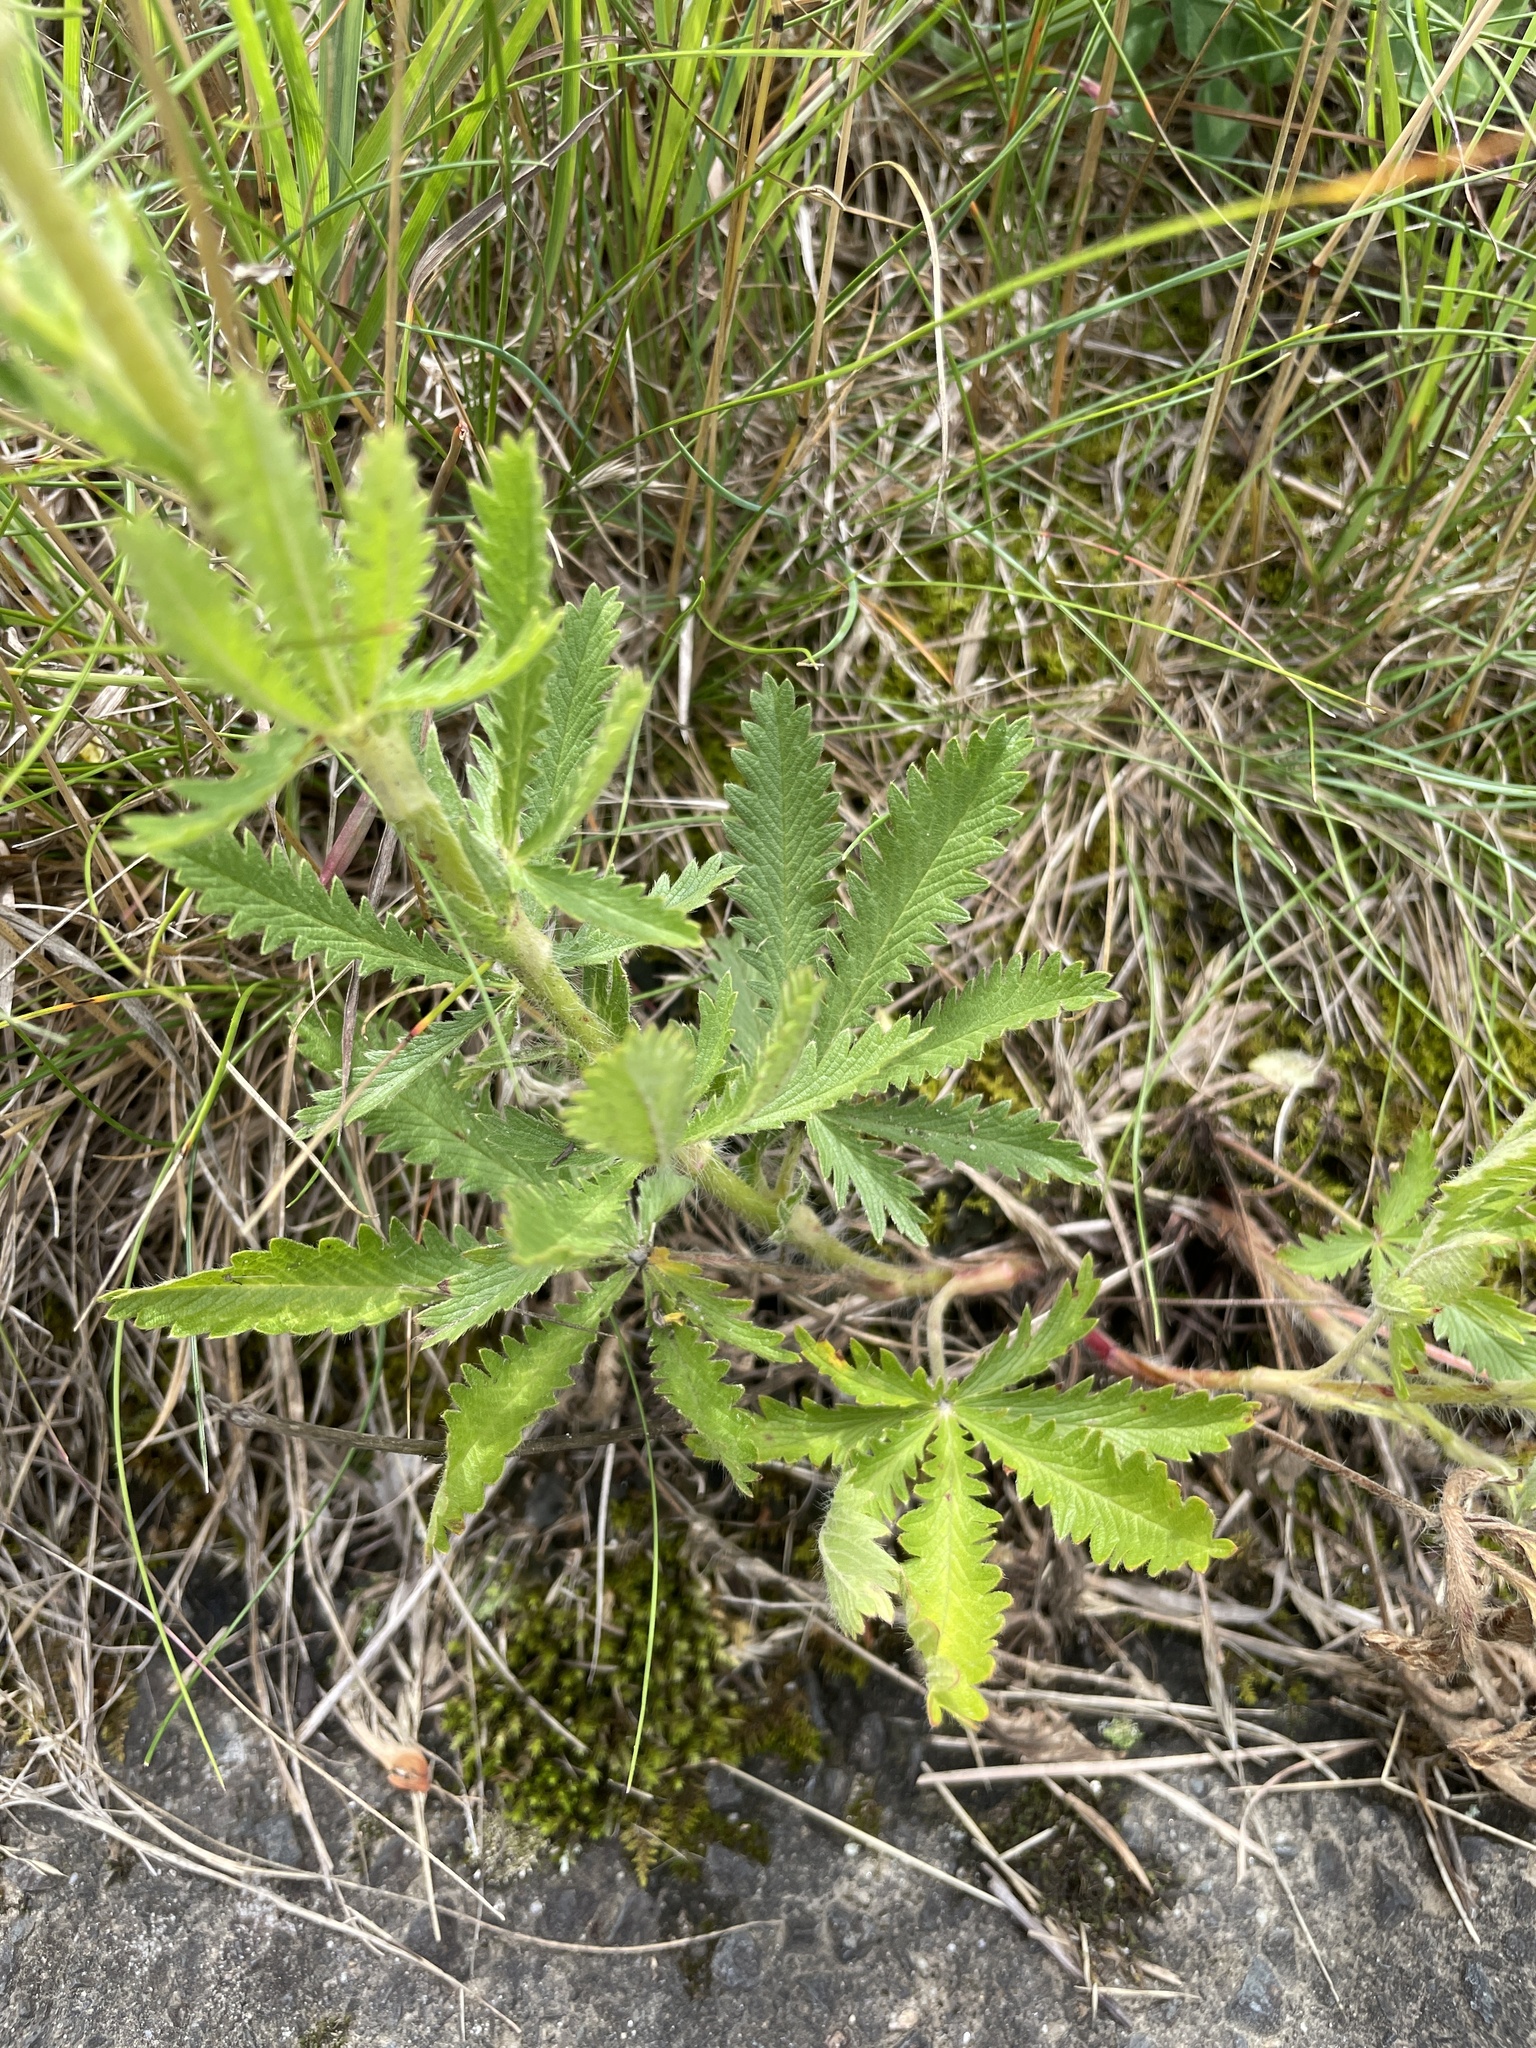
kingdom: Plantae
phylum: Tracheophyta
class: Magnoliopsida
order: Rosales
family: Rosaceae
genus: Potentilla
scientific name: Potentilla recta
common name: Sulphur cinquefoil
